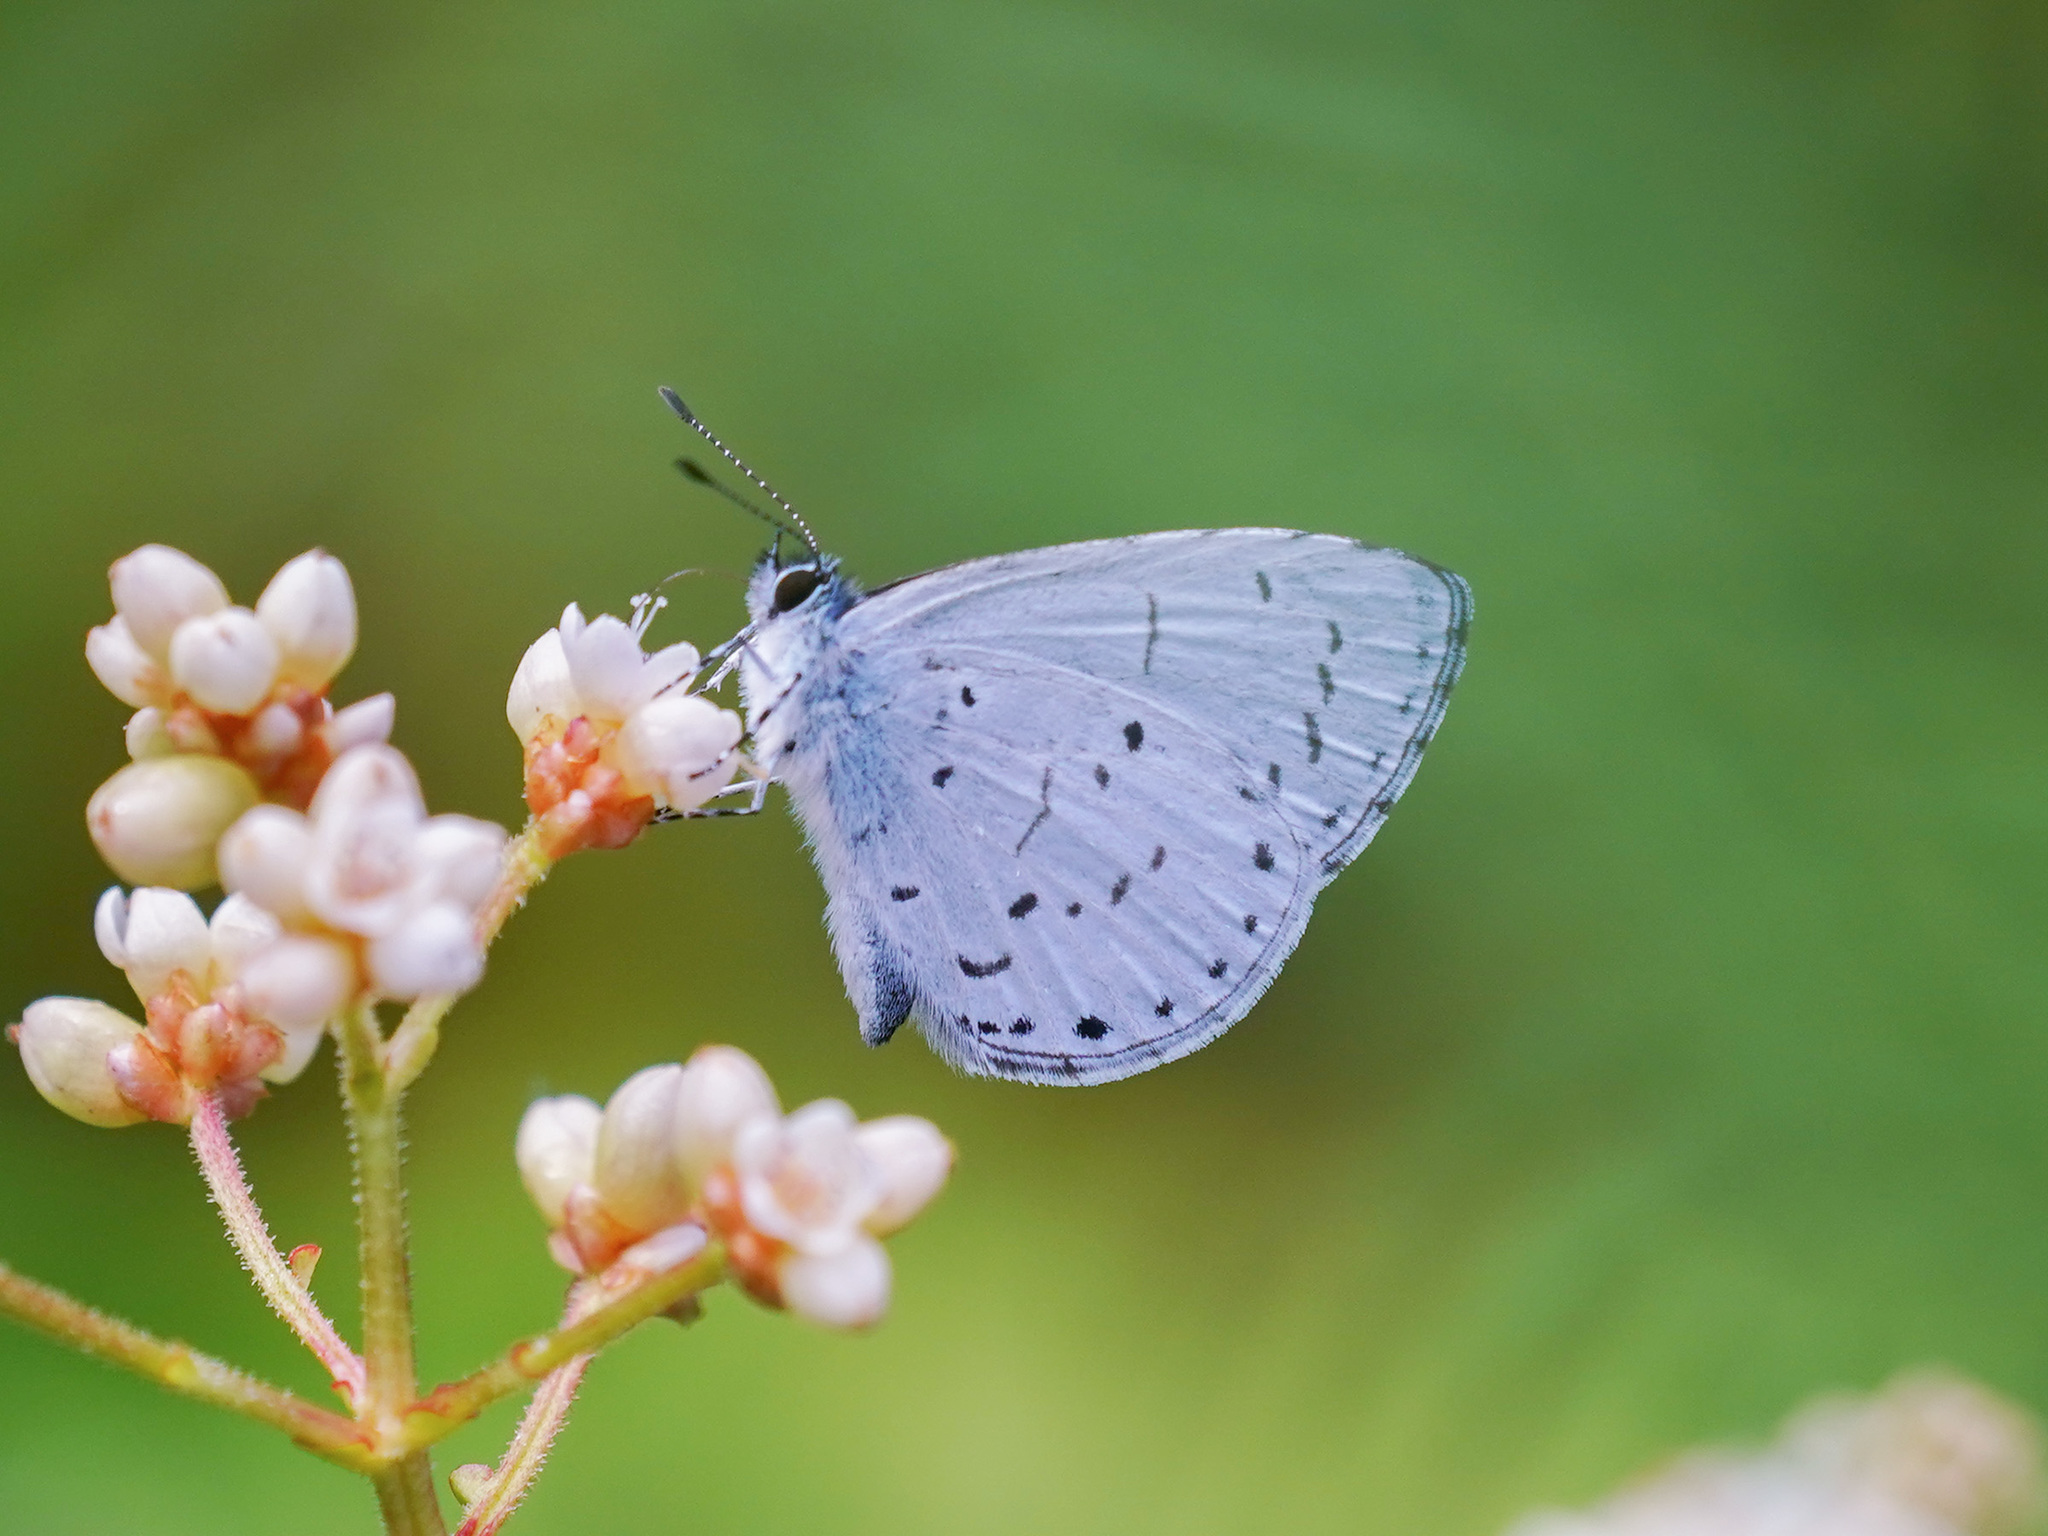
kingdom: Animalia
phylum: Arthropoda
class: Insecta
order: Lepidoptera
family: Lycaenidae
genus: Udara
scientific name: Udara camenae
